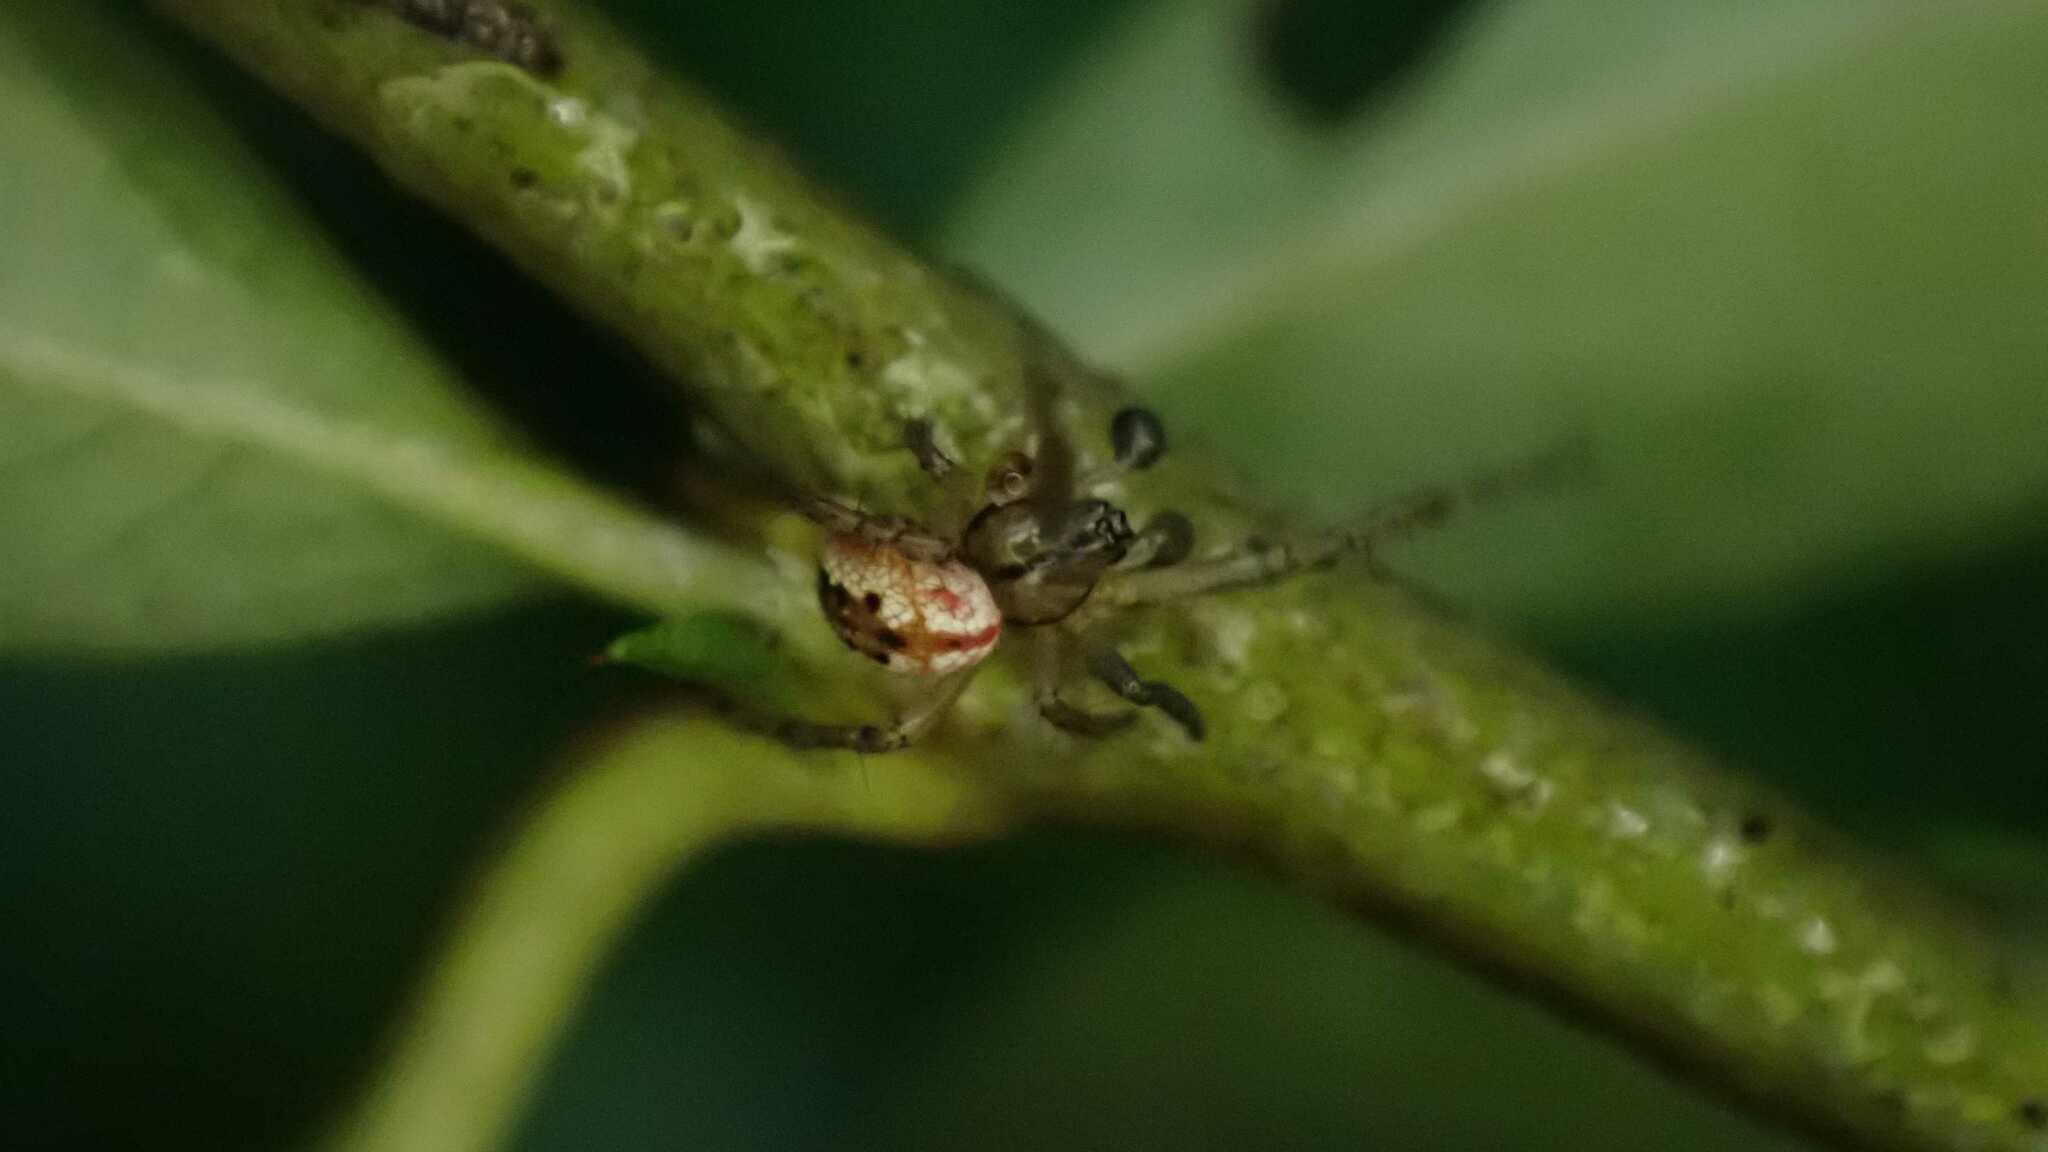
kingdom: Animalia
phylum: Arthropoda
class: Arachnida
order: Araneae
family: Araneidae
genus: Mangora
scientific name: Mangora acalypha
